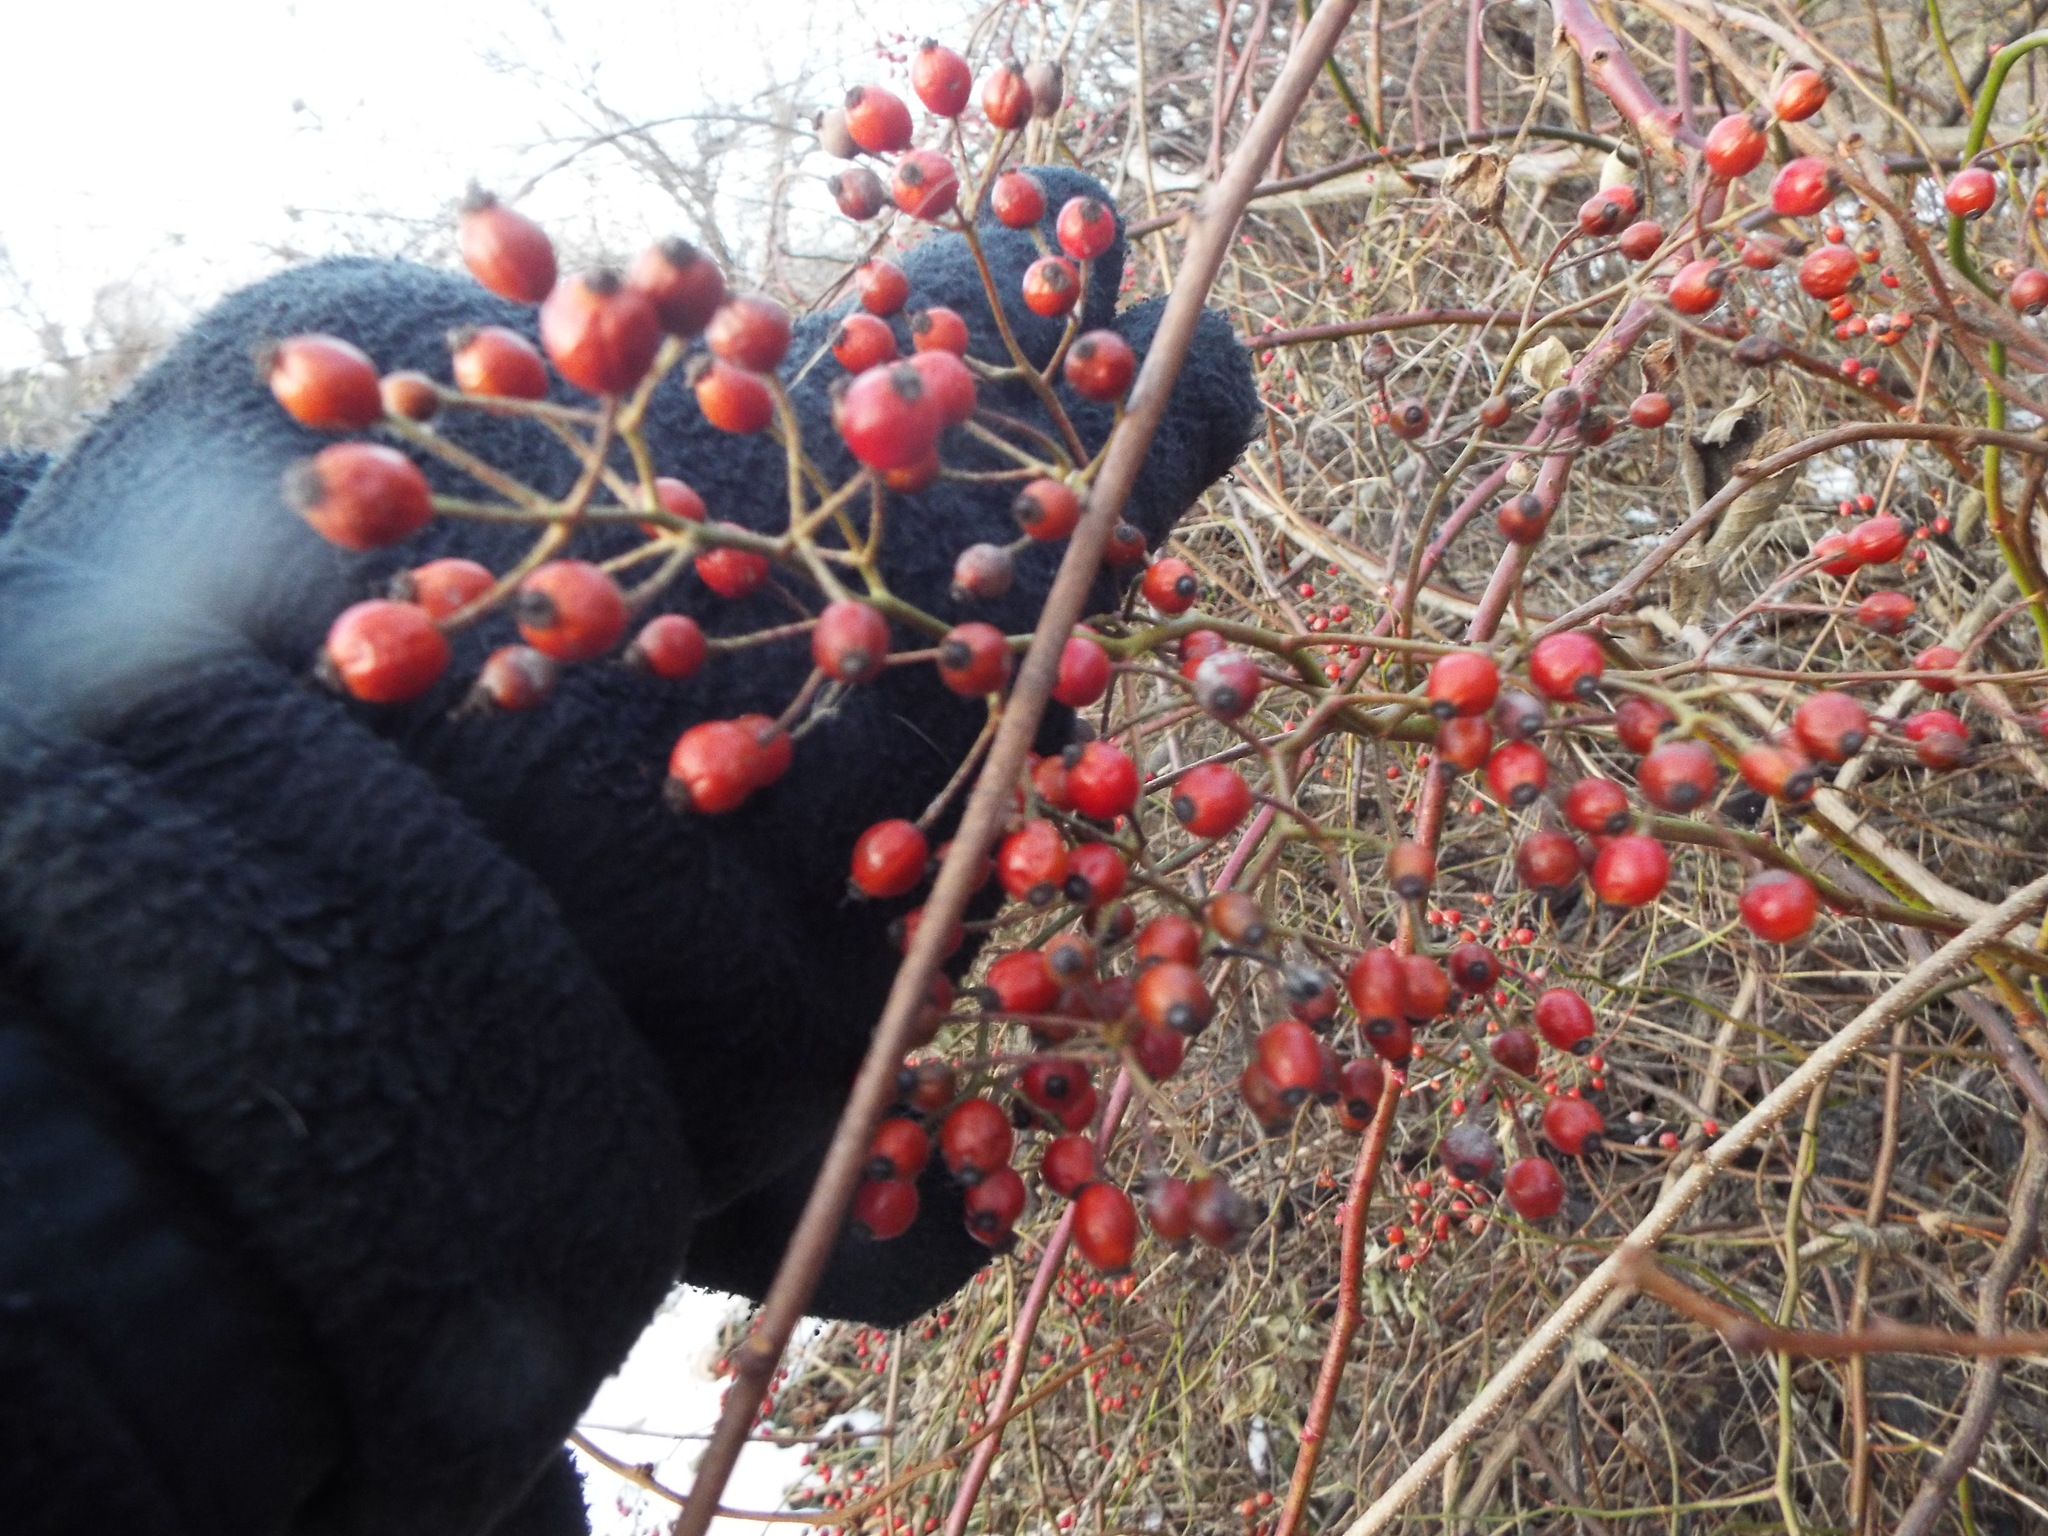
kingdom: Plantae
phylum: Tracheophyta
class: Magnoliopsida
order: Rosales
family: Rosaceae
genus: Rosa
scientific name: Rosa multiflora
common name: Multiflora rose
